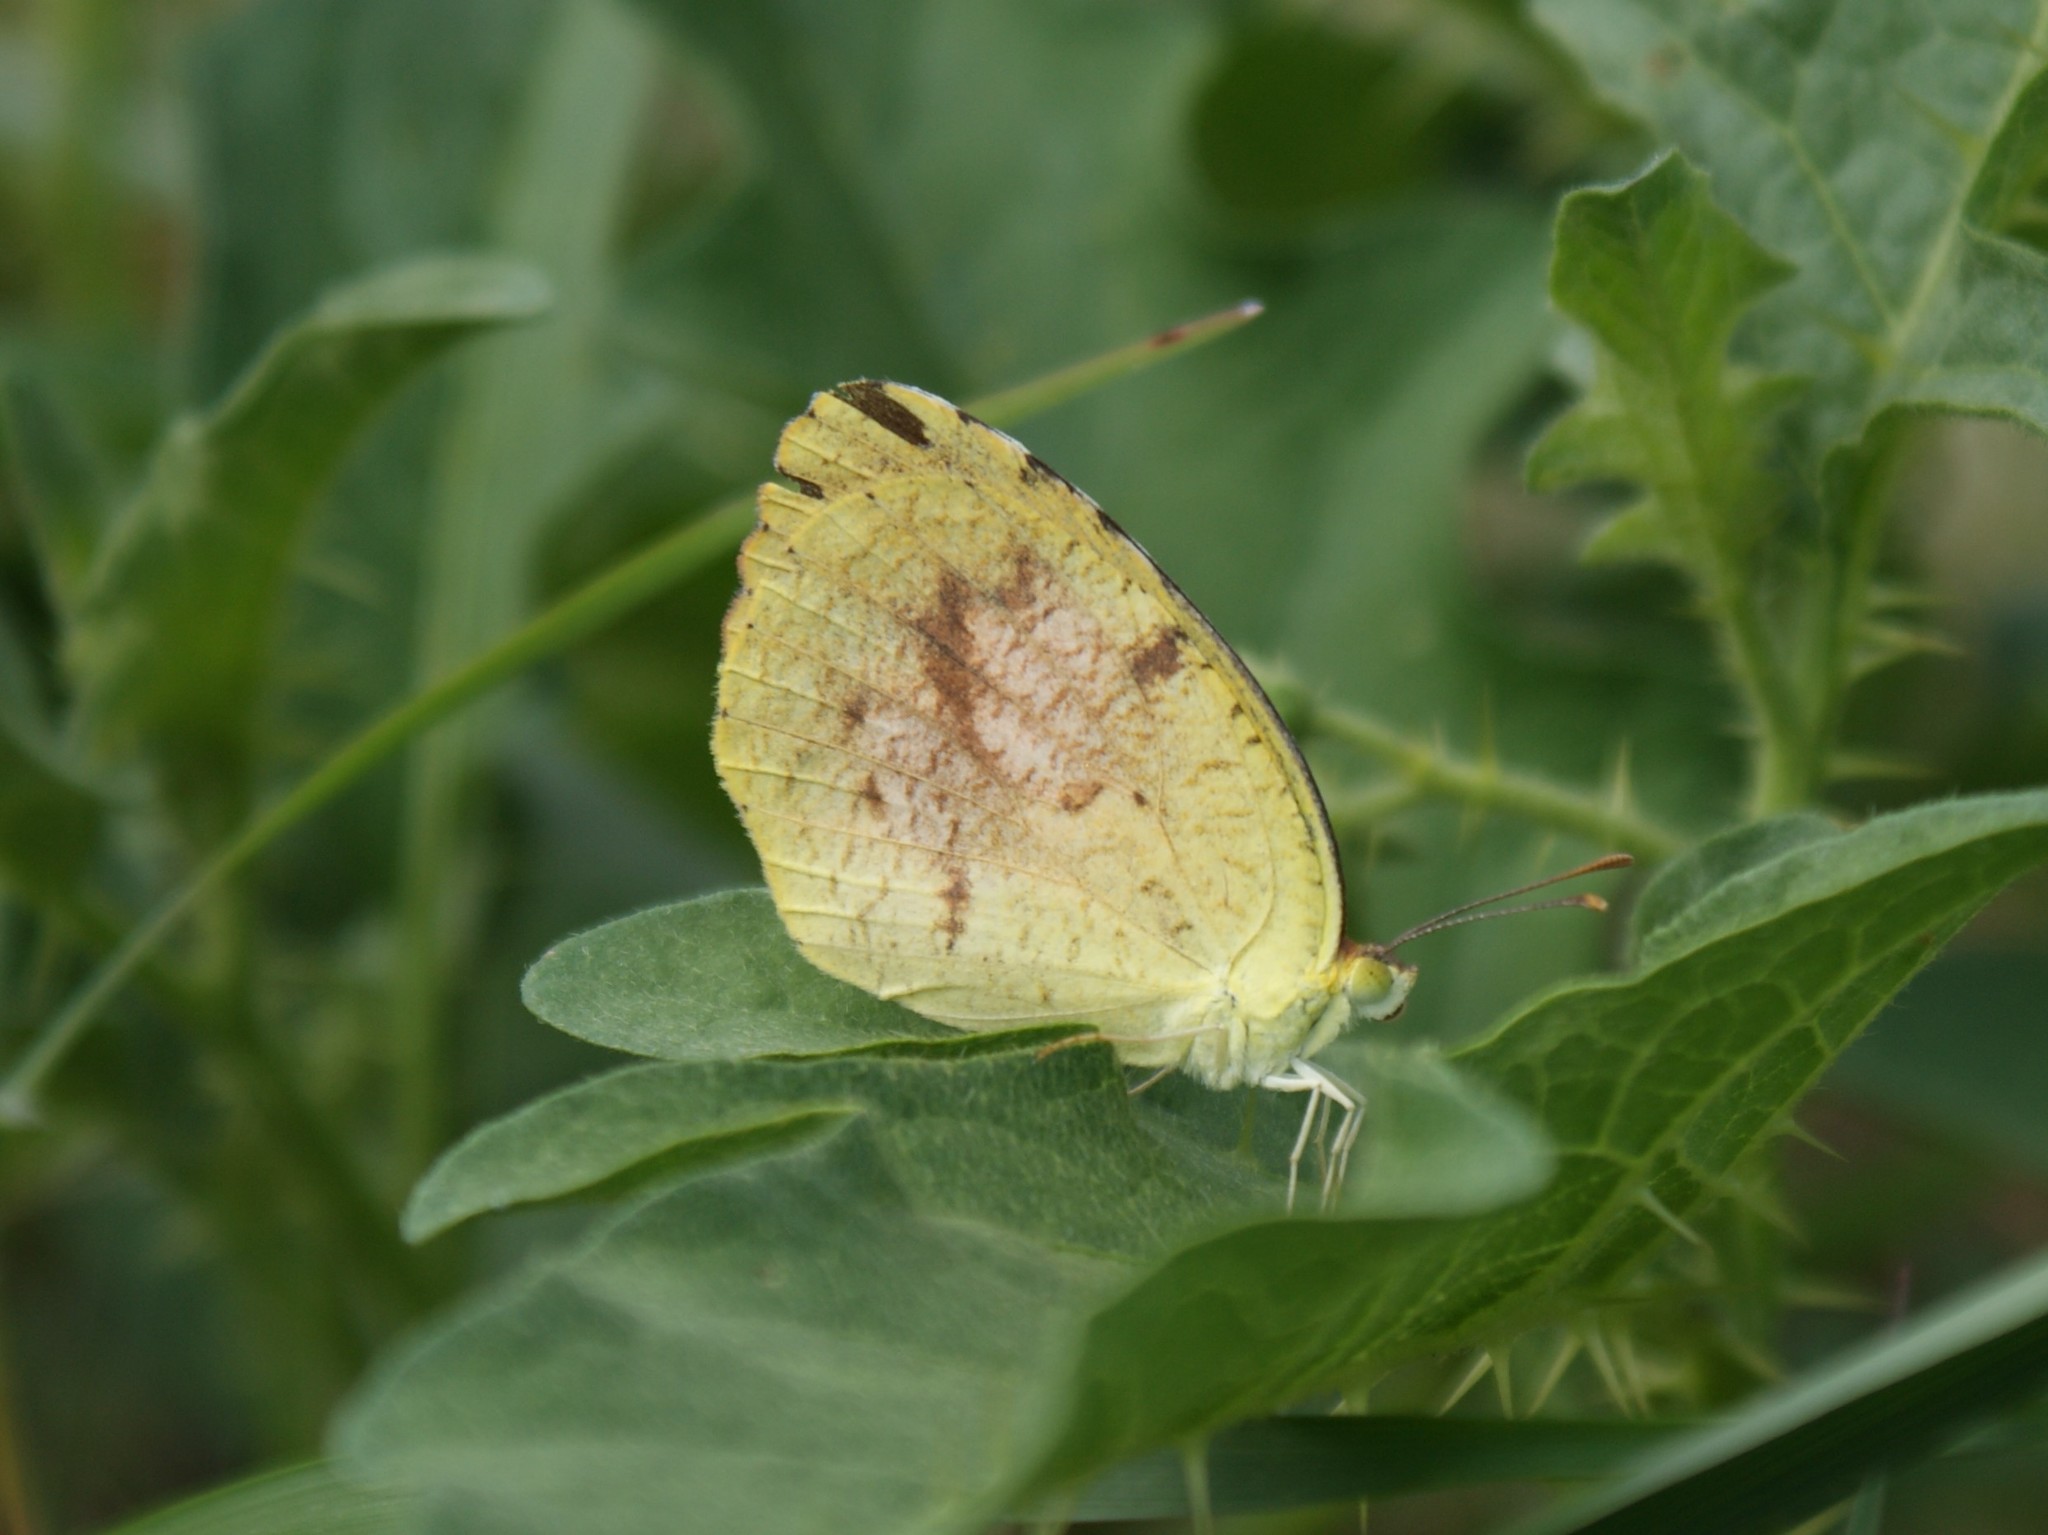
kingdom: Animalia
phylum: Arthropoda
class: Insecta
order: Lepidoptera
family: Pieridae
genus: Abaeis
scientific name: Abaeis nicippe
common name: Sleepy orange
